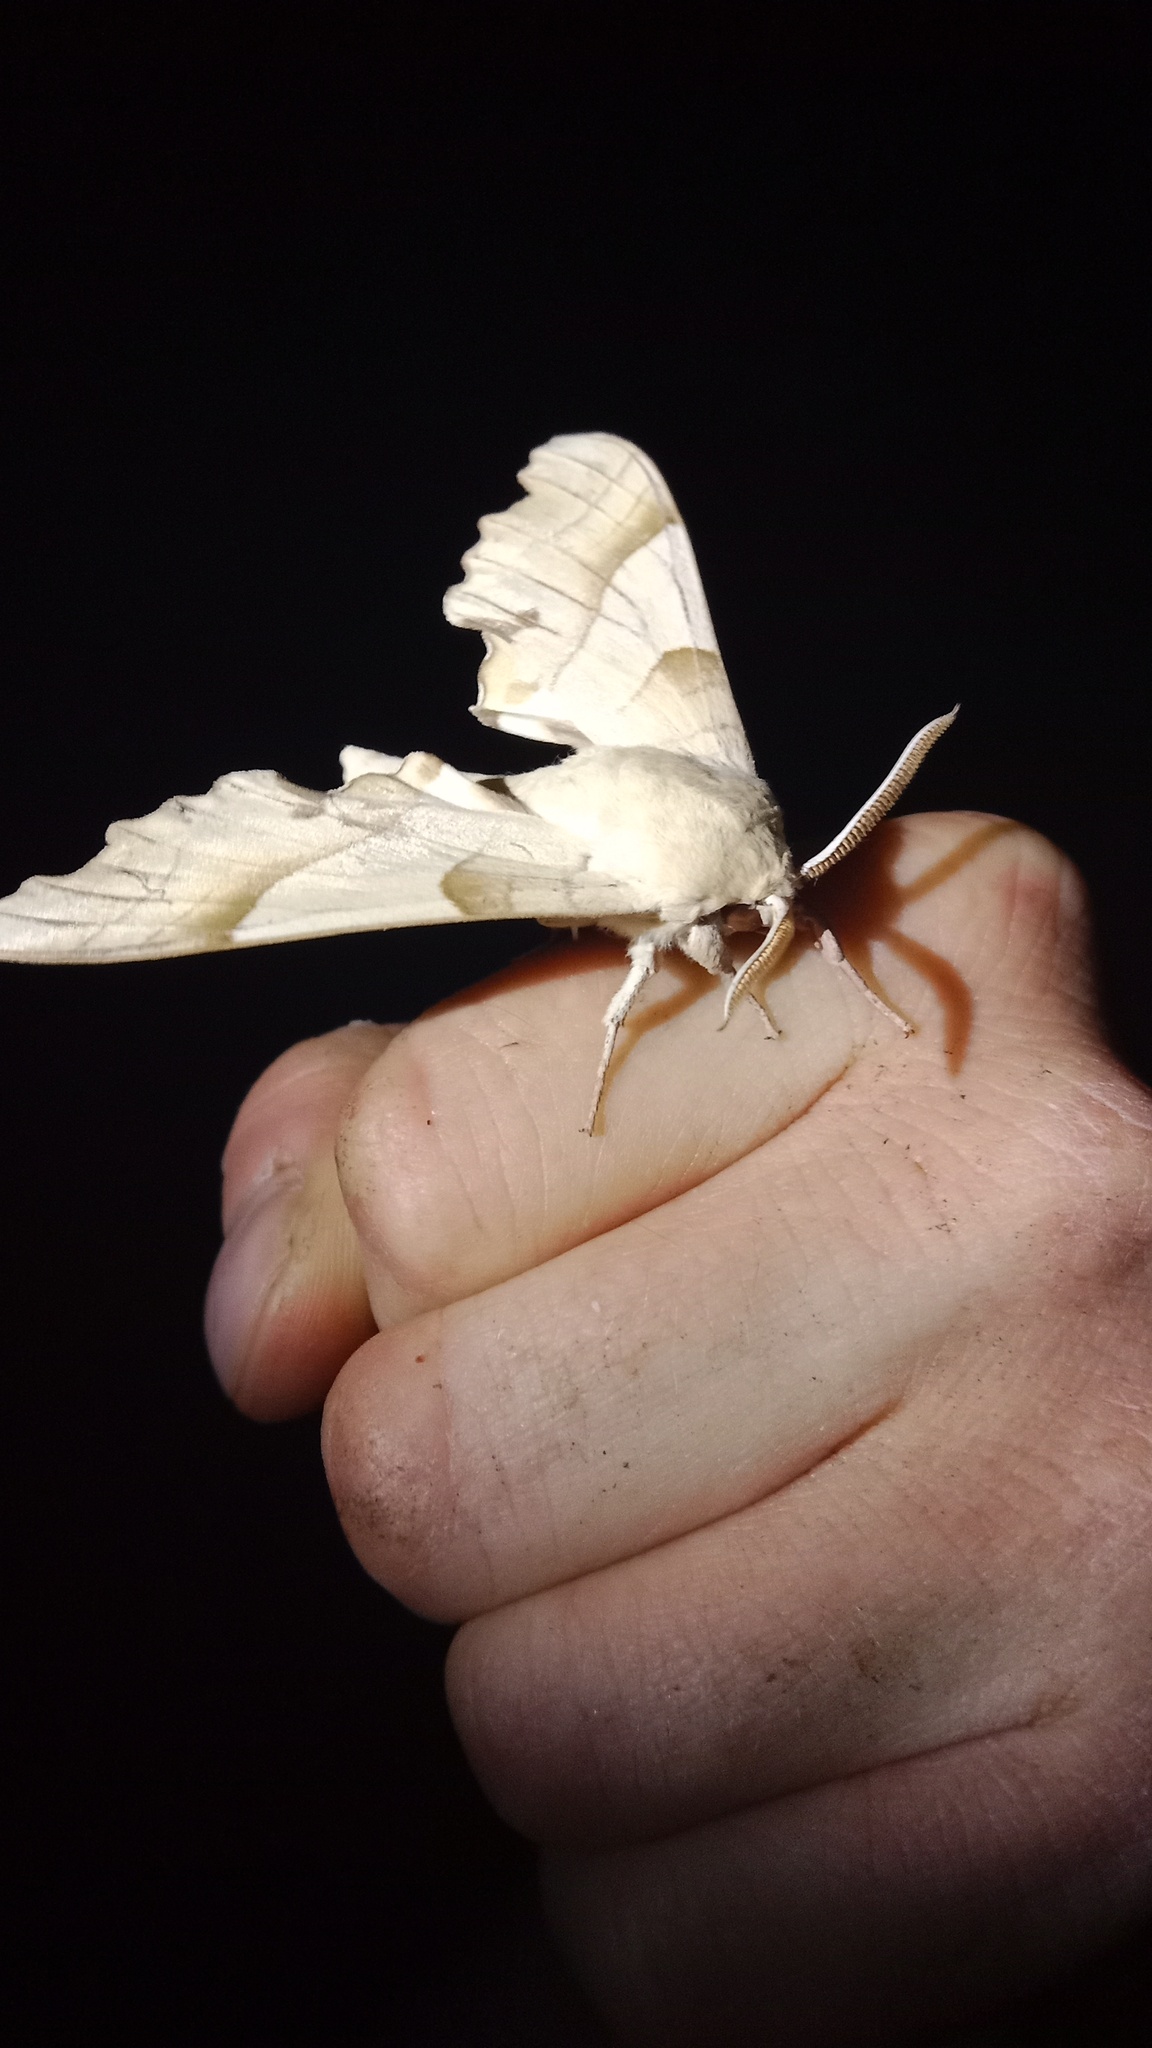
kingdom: Animalia
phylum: Arthropoda
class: Insecta
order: Lepidoptera
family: Sphingidae
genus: Marumba
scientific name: Marumba quercus
